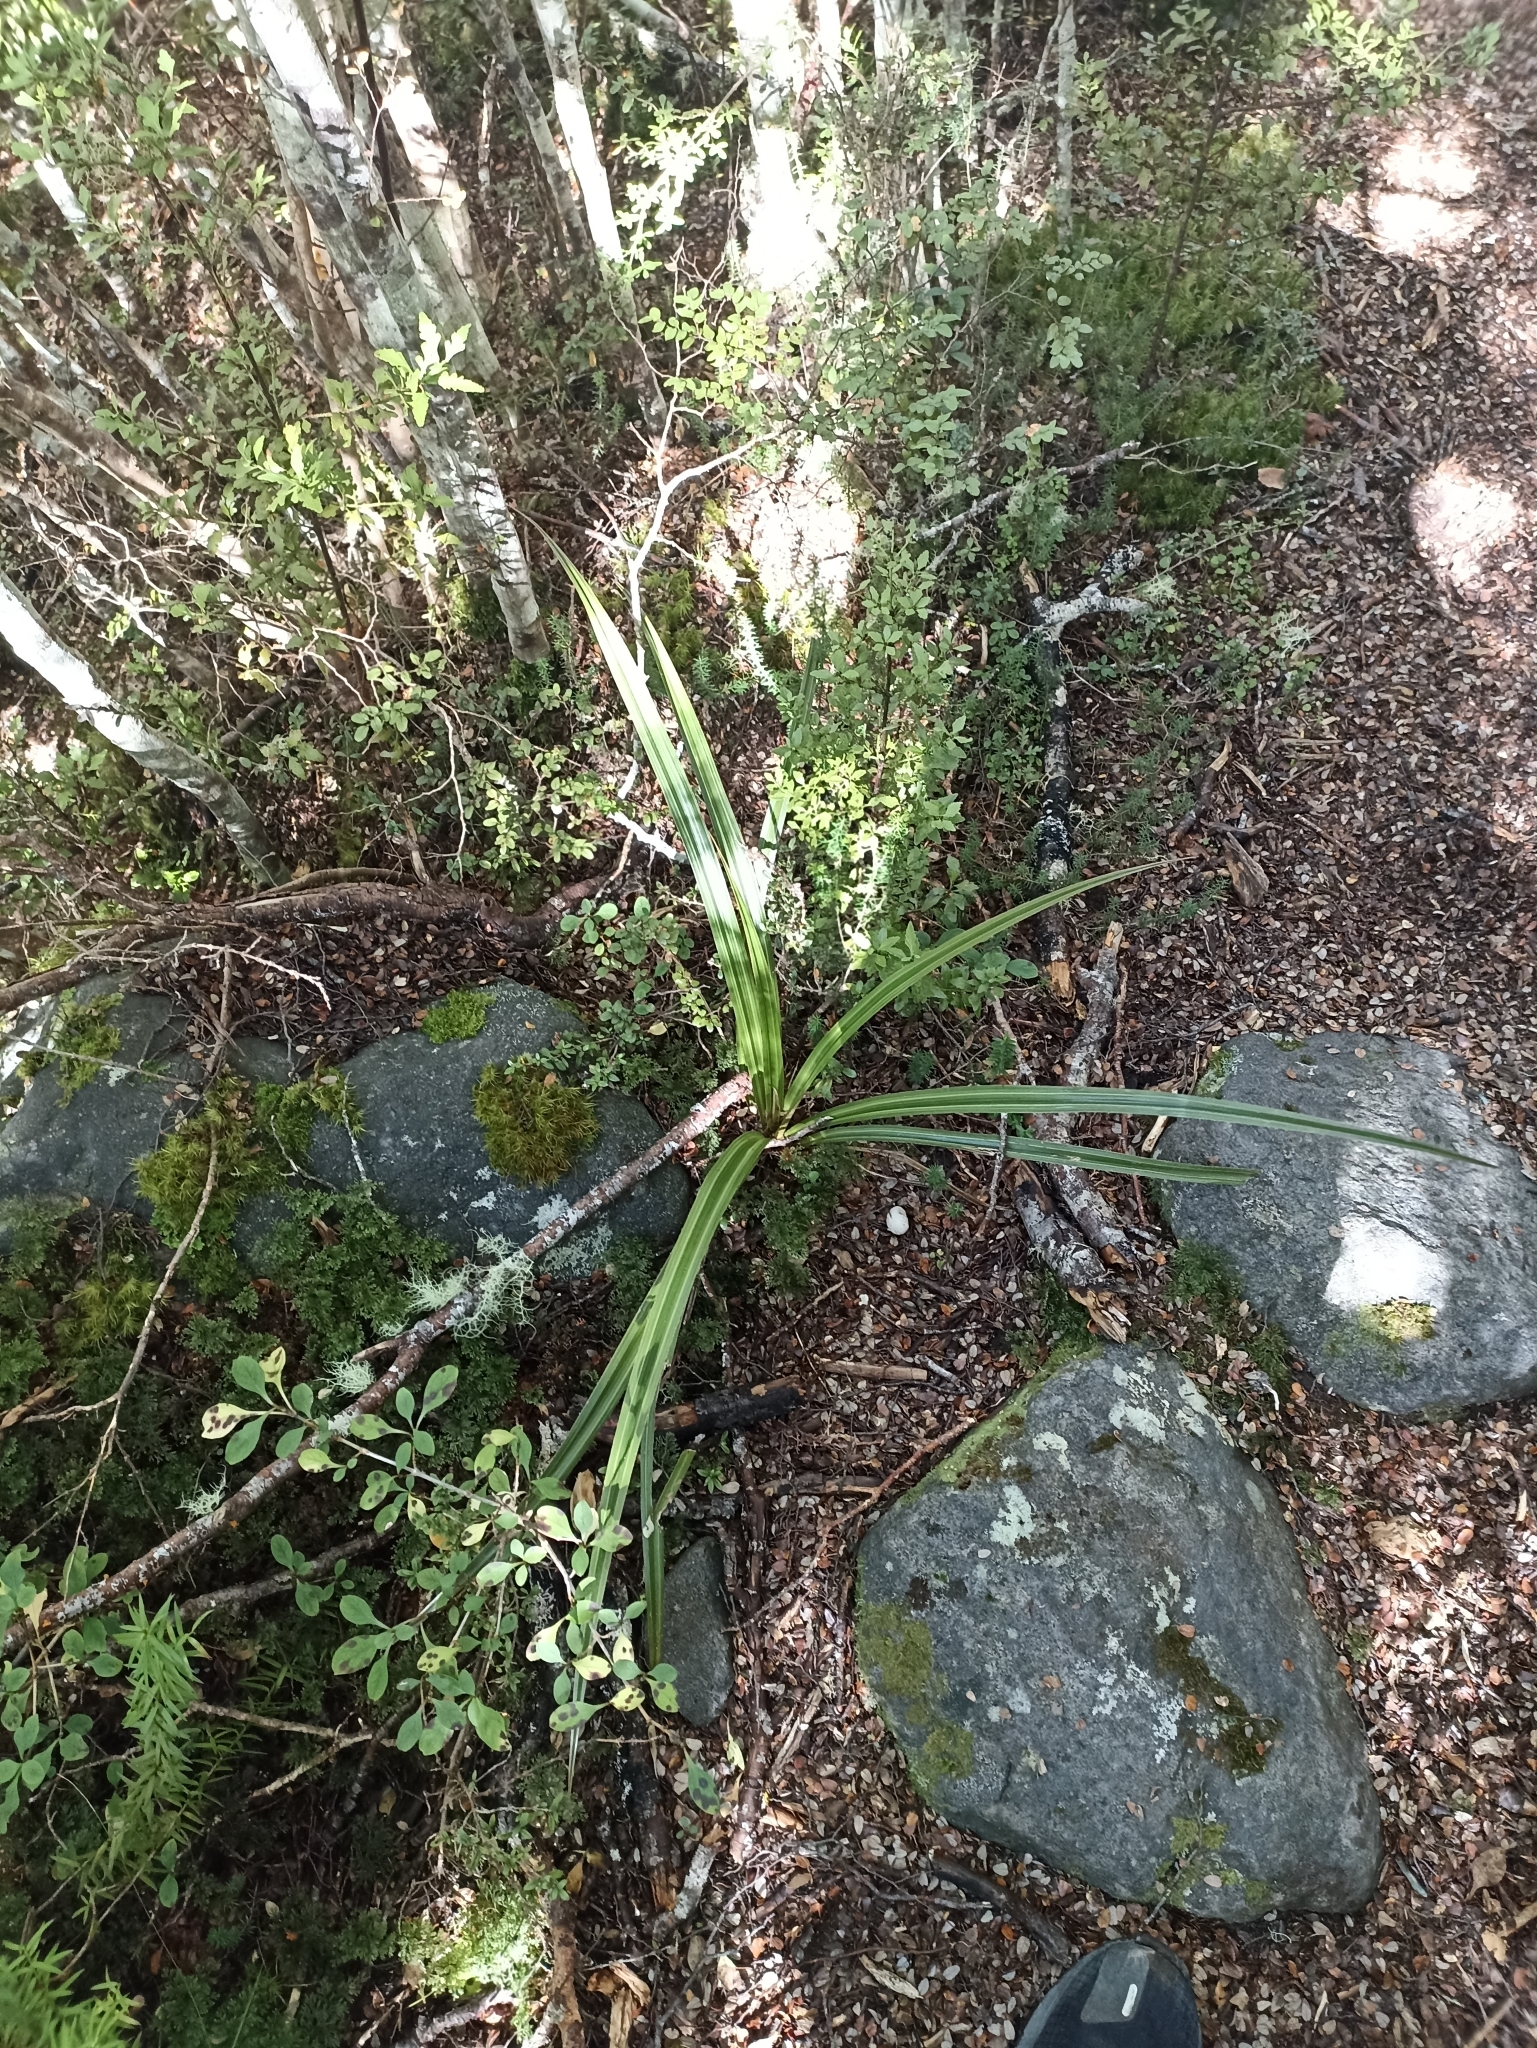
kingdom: Plantae
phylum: Tracheophyta
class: Liliopsida
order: Asparagales
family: Asteliaceae
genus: Astelia
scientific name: Astelia fragrans
